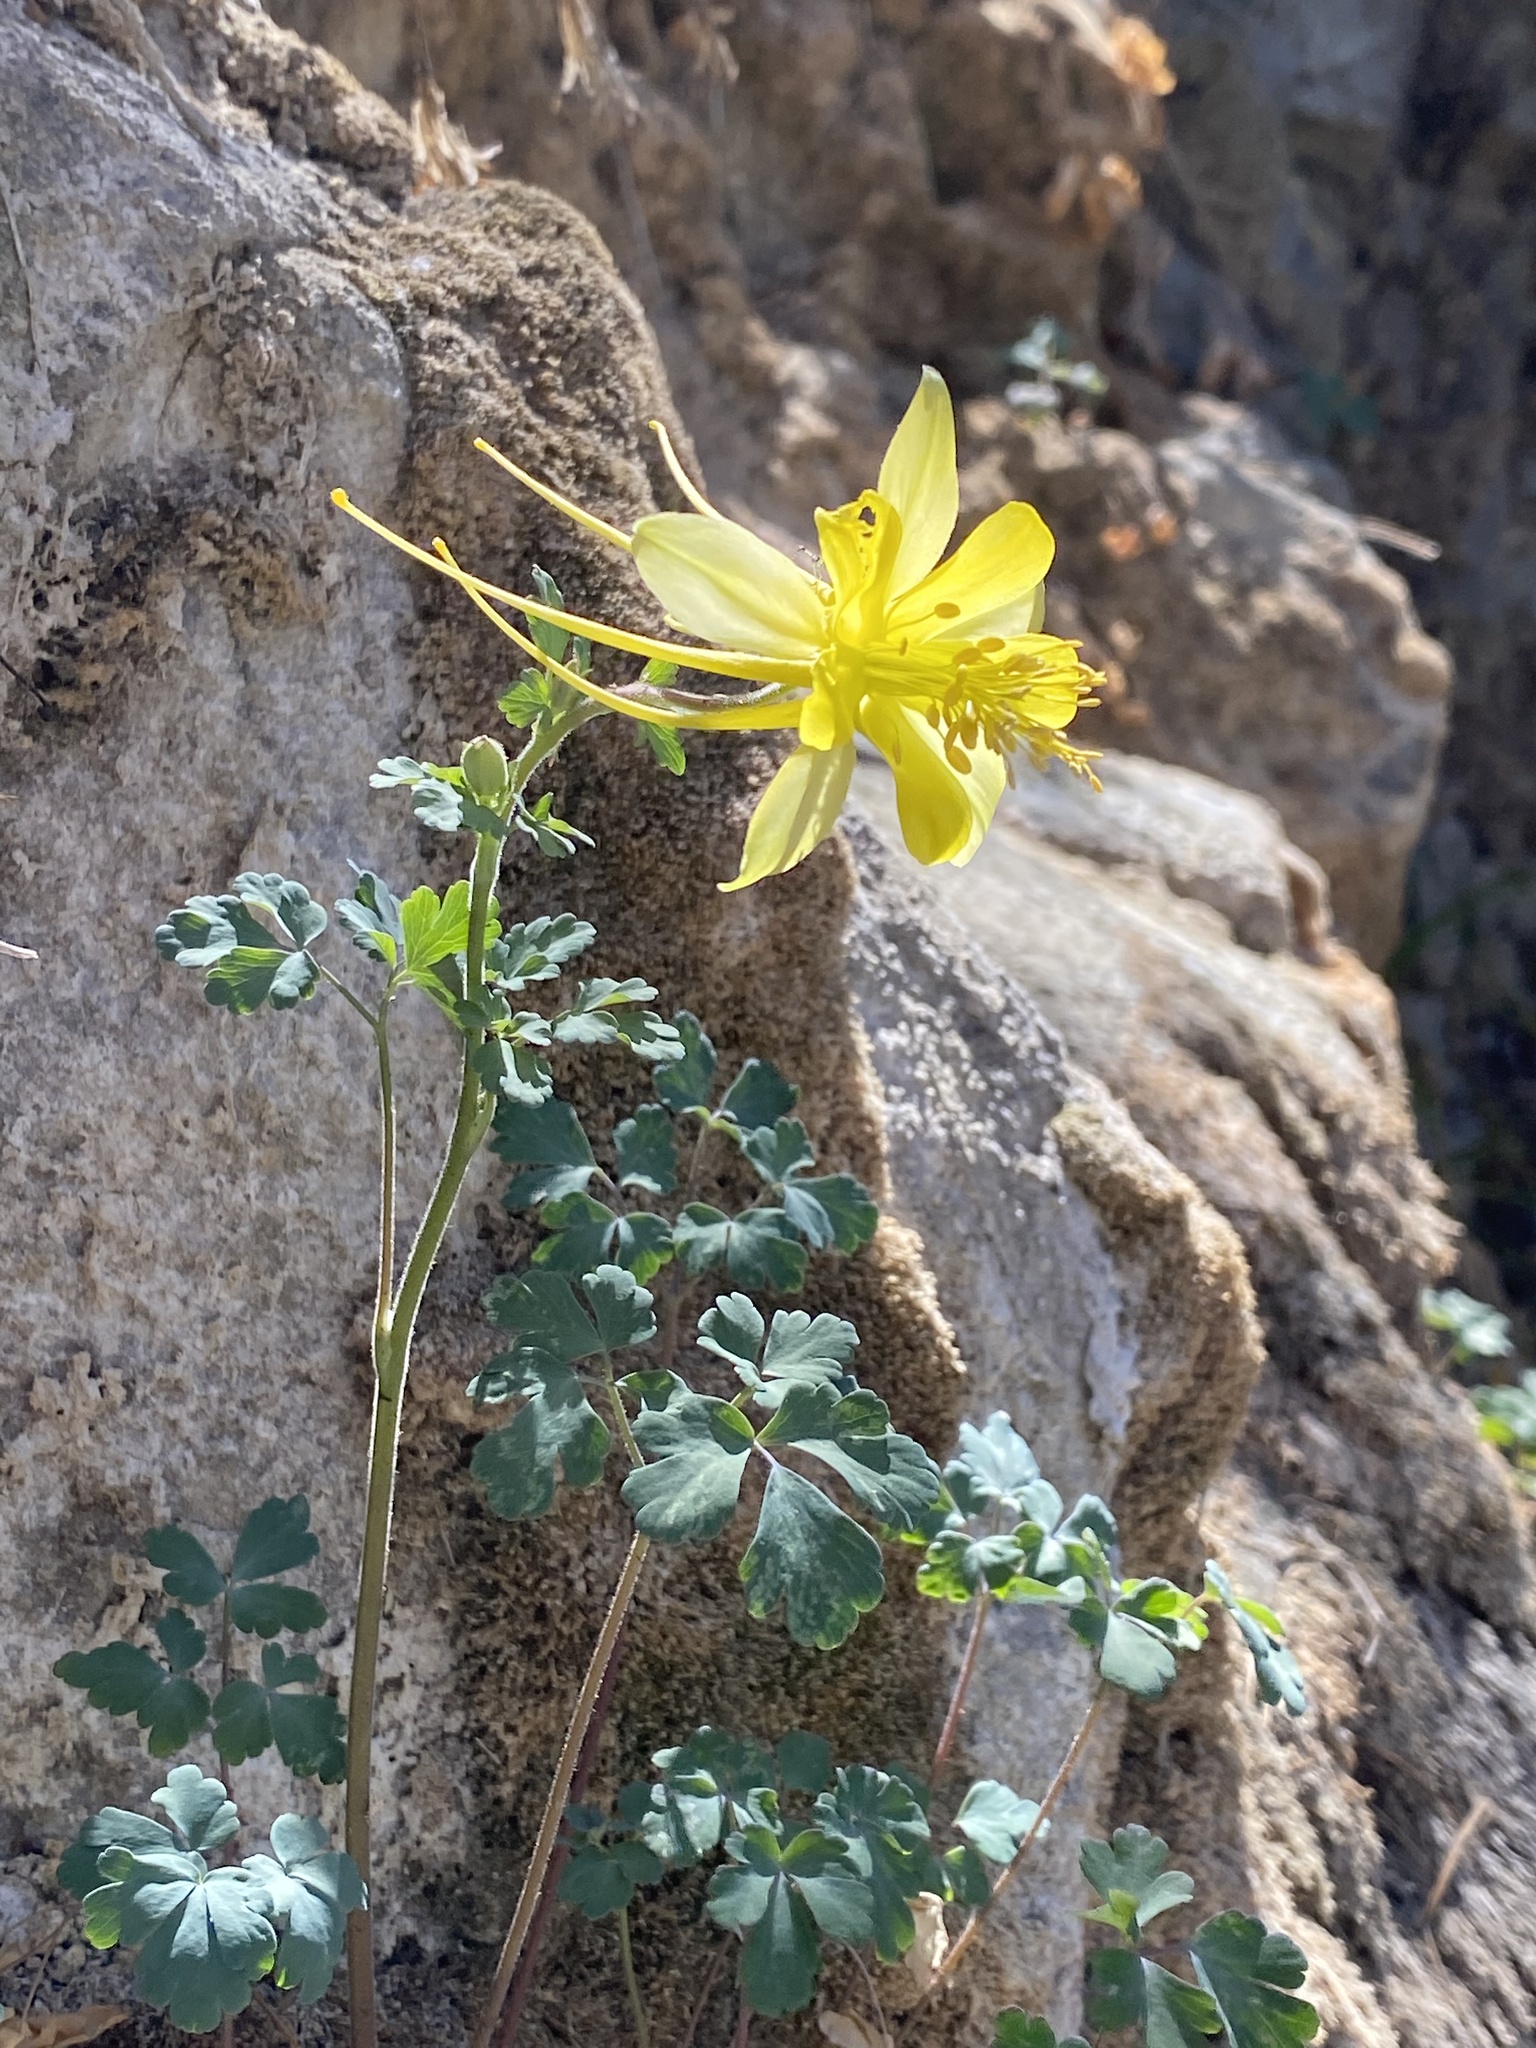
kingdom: Plantae
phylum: Tracheophyta
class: Magnoliopsida
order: Ranunculales
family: Ranunculaceae
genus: Aquilegia
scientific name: Aquilegia chrysantha
